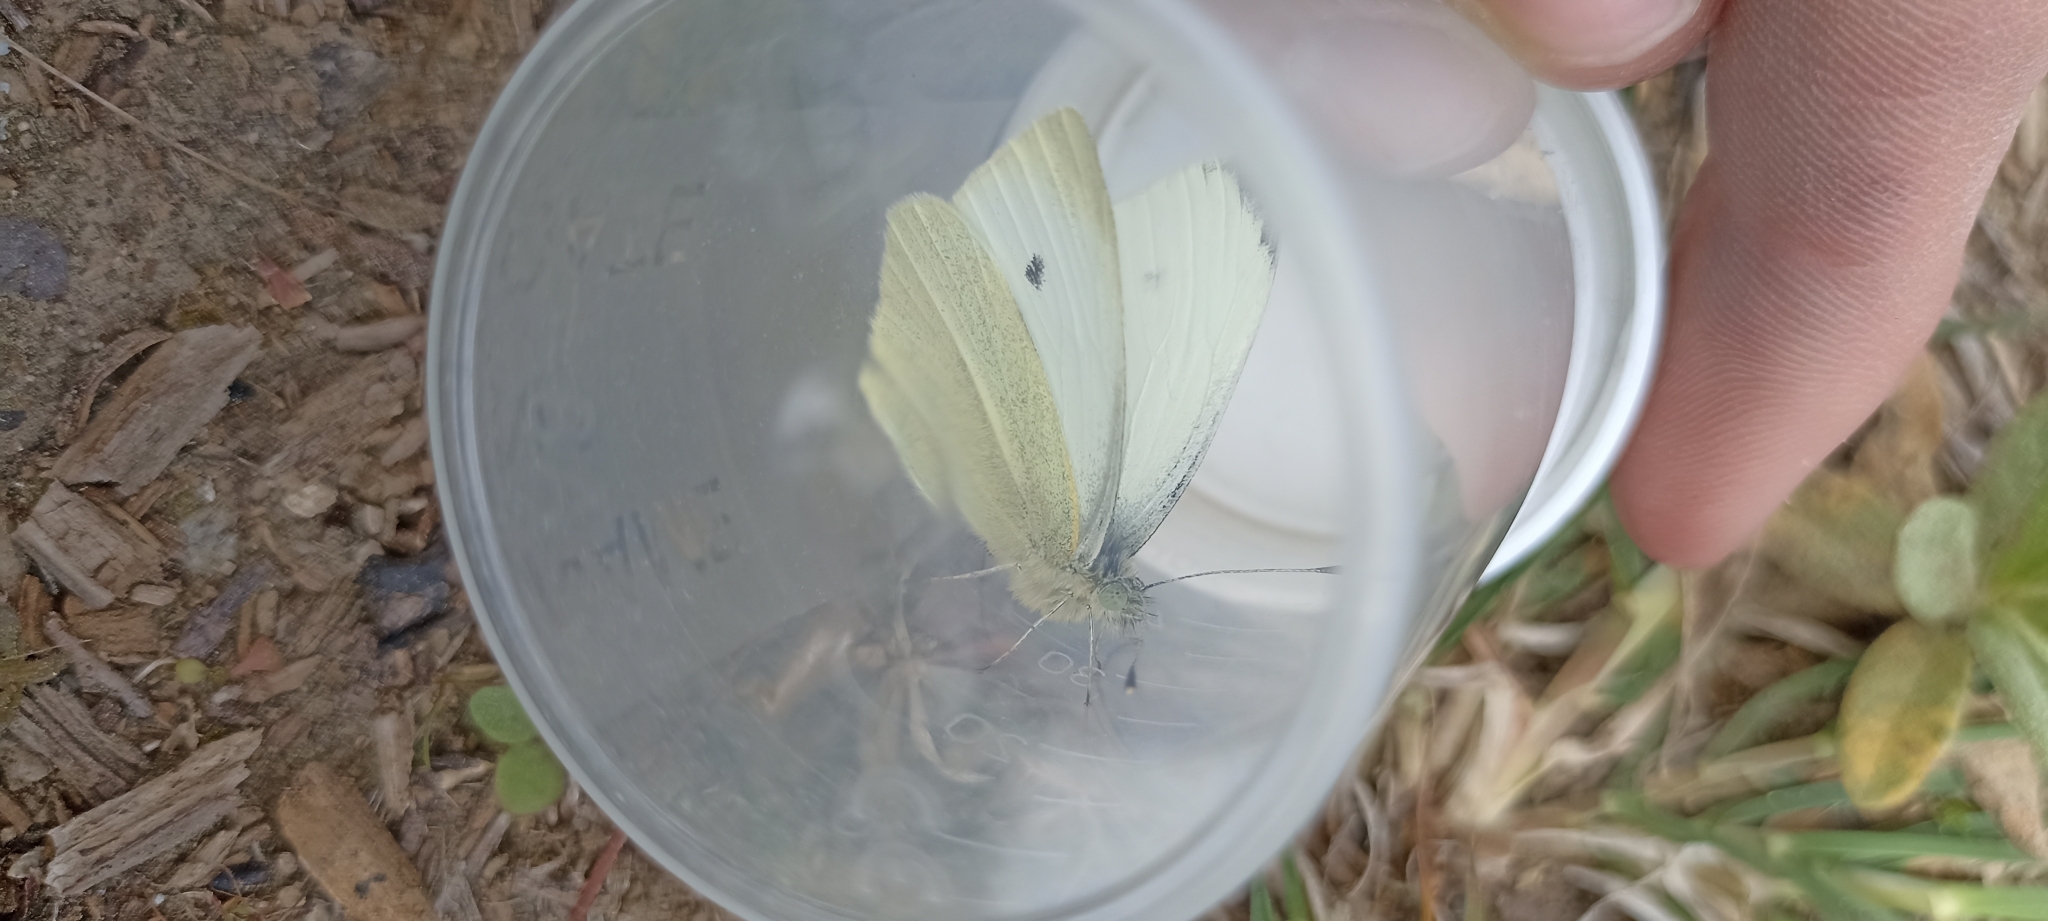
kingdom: Animalia
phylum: Arthropoda
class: Insecta
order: Lepidoptera
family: Pieridae
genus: Pieris
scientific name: Pieris rapae
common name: Small white
